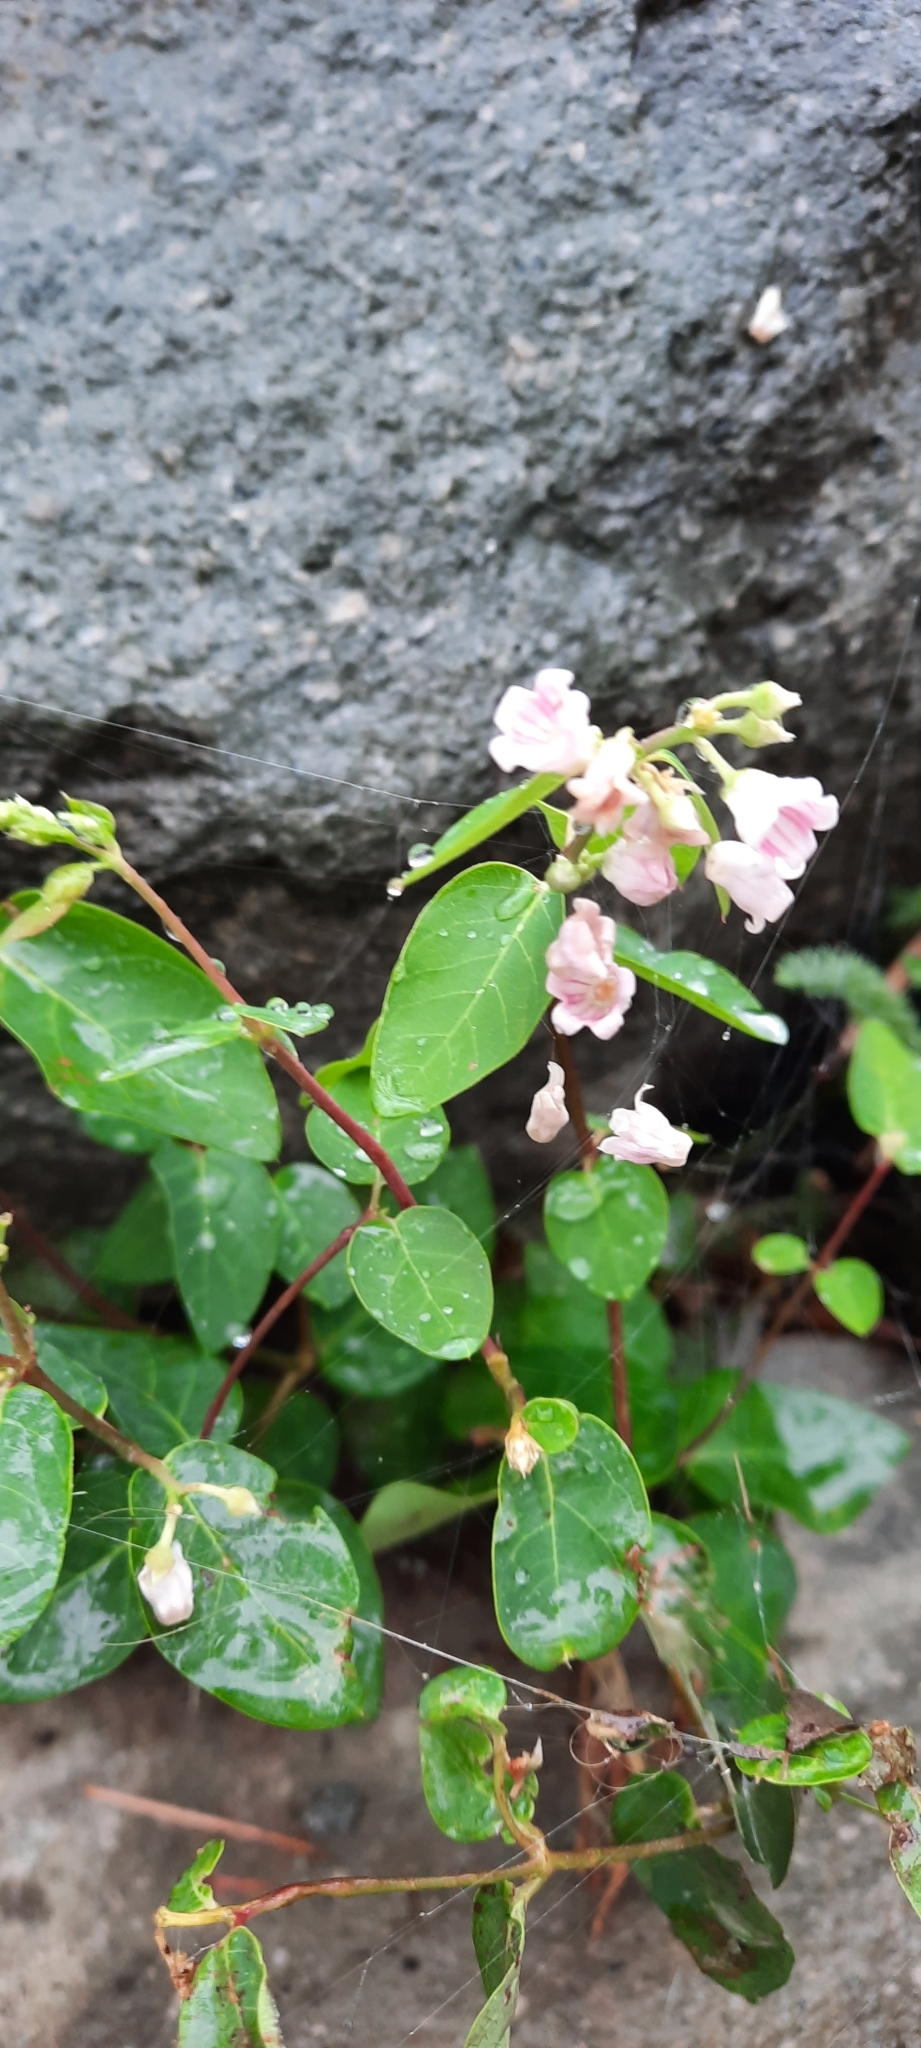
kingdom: Plantae
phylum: Tracheophyta
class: Magnoliopsida
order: Gentianales
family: Apocynaceae
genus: Apocynum
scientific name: Apocynum androsaemifolium
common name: Spreading dogbane
